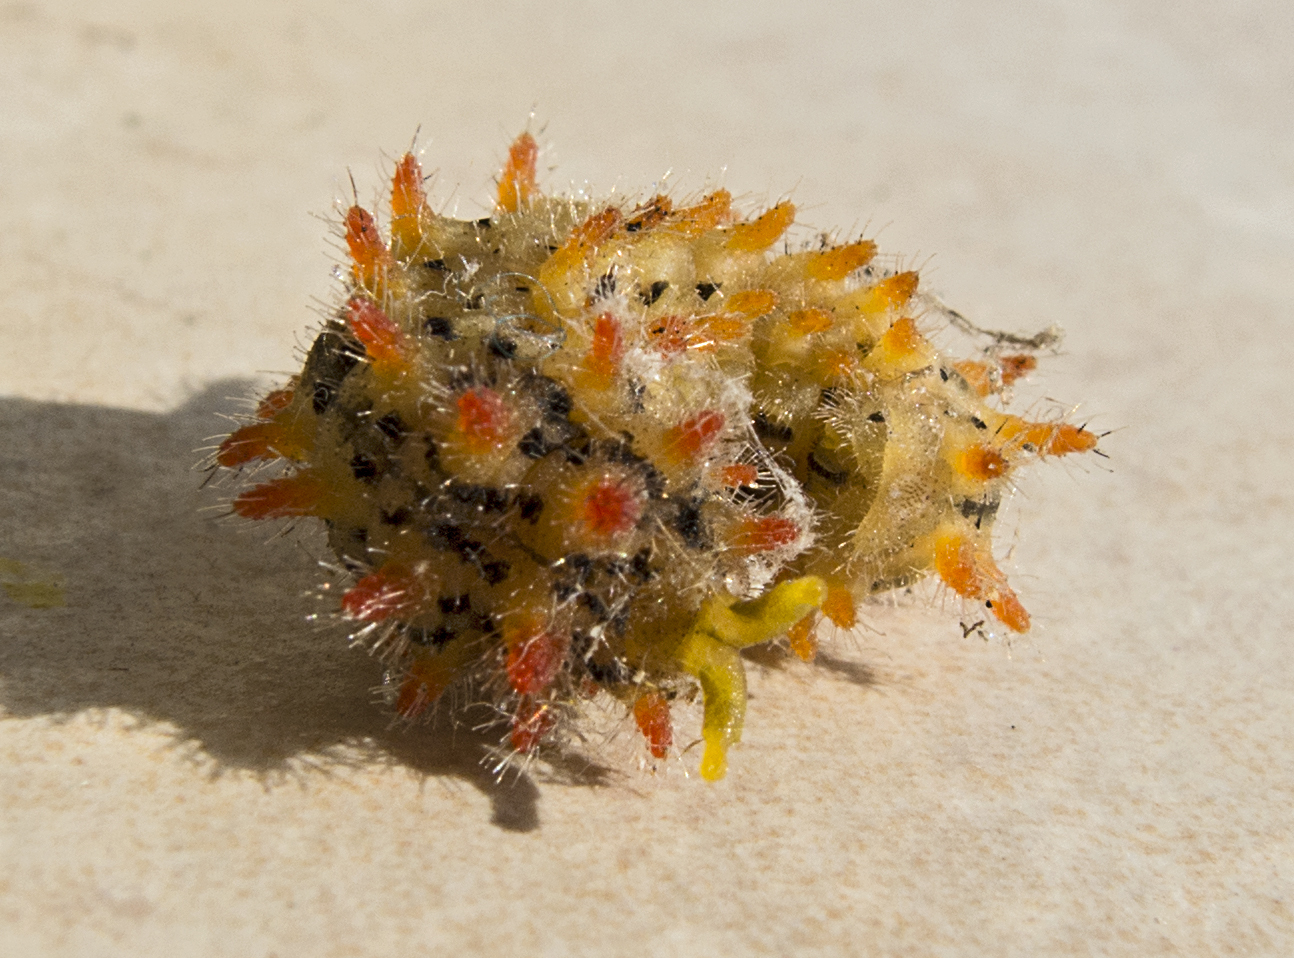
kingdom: Animalia
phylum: Arthropoda
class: Insecta
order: Lepidoptera
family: Papilionidae
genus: Zerynthia
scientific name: Zerynthia cerisy
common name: Eastern festoon
